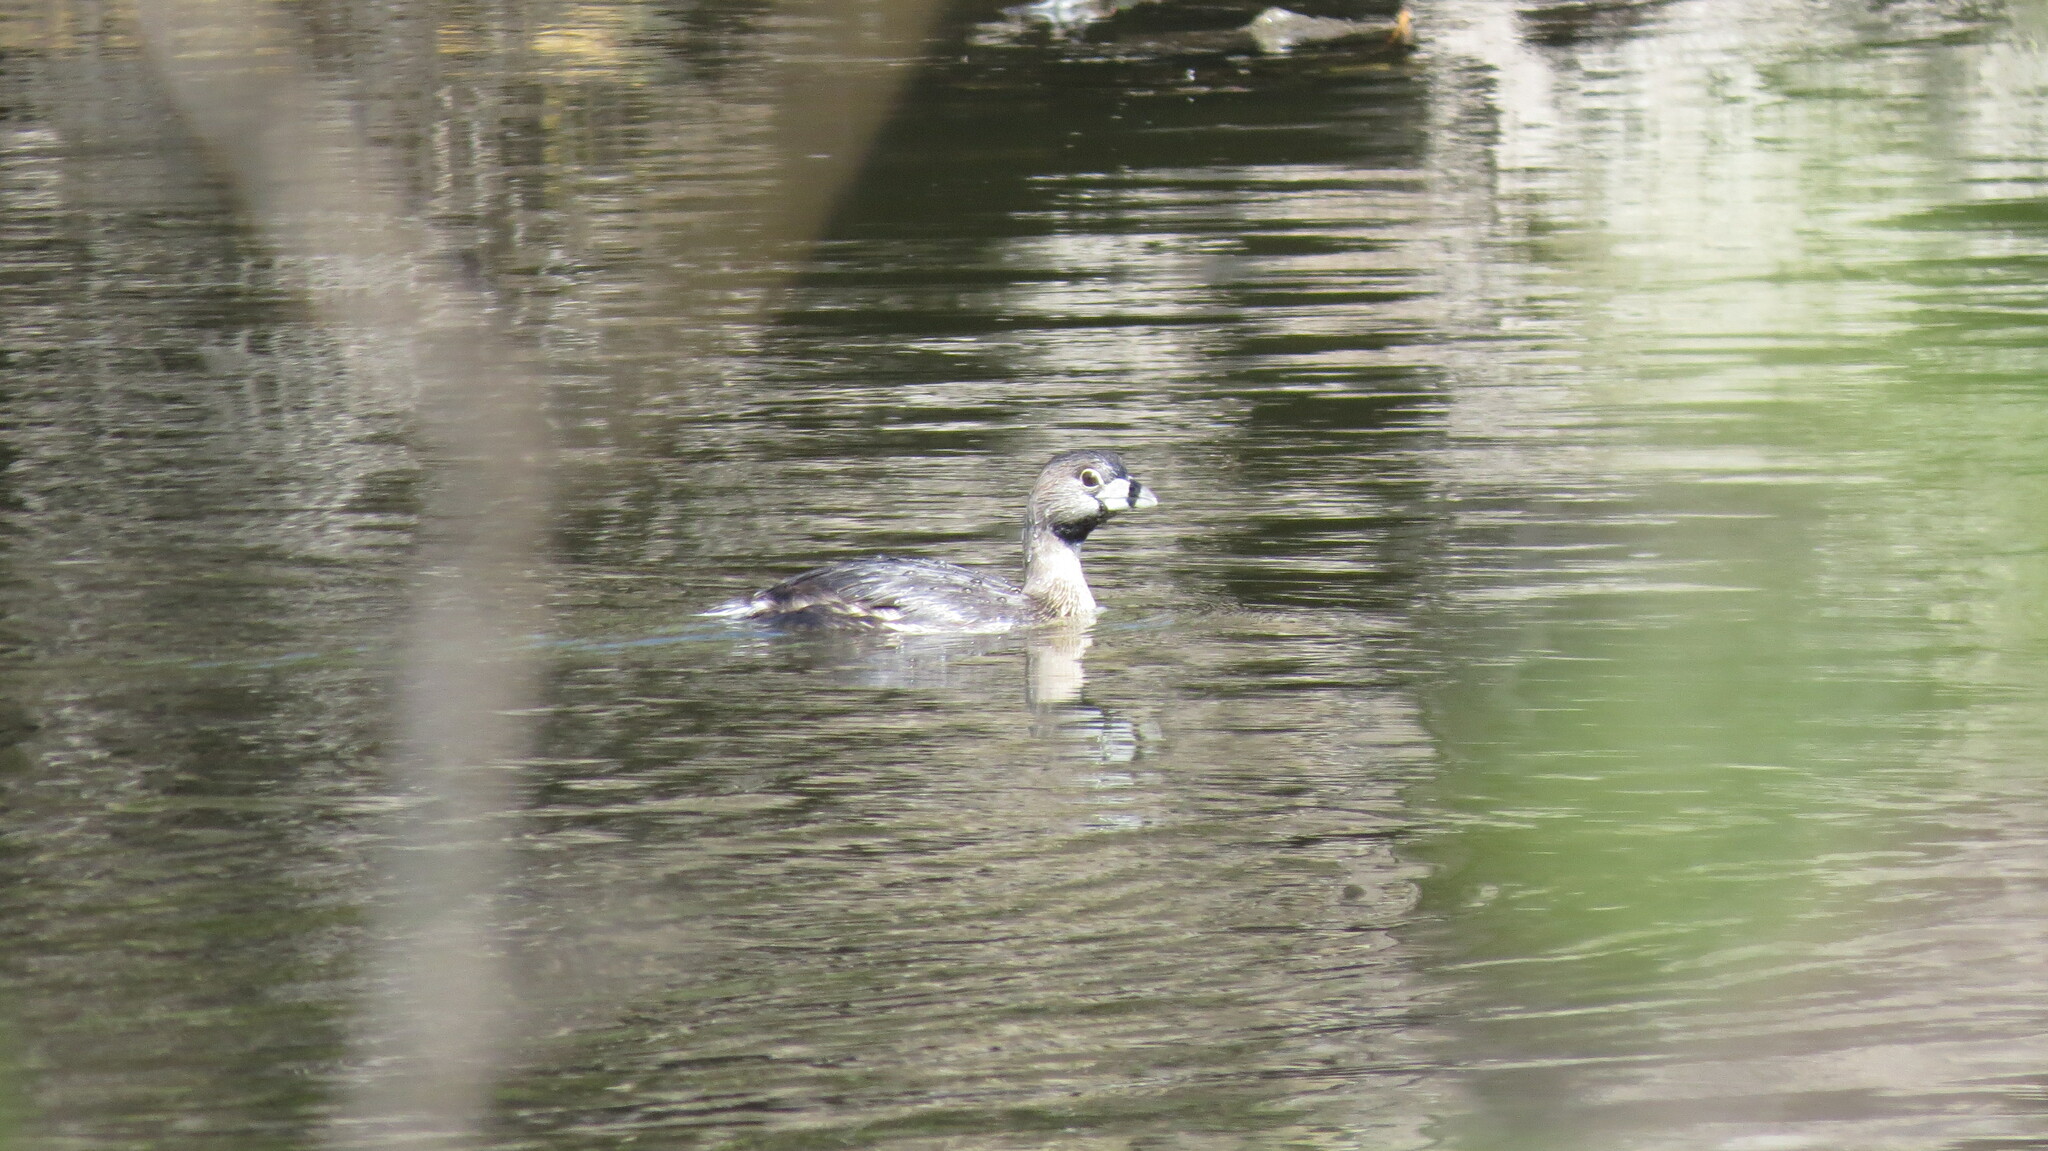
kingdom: Animalia
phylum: Chordata
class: Aves
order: Podicipediformes
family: Podicipedidae
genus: Podilymbus
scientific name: Podilymbus podiceps
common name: Pied-billed grebe
